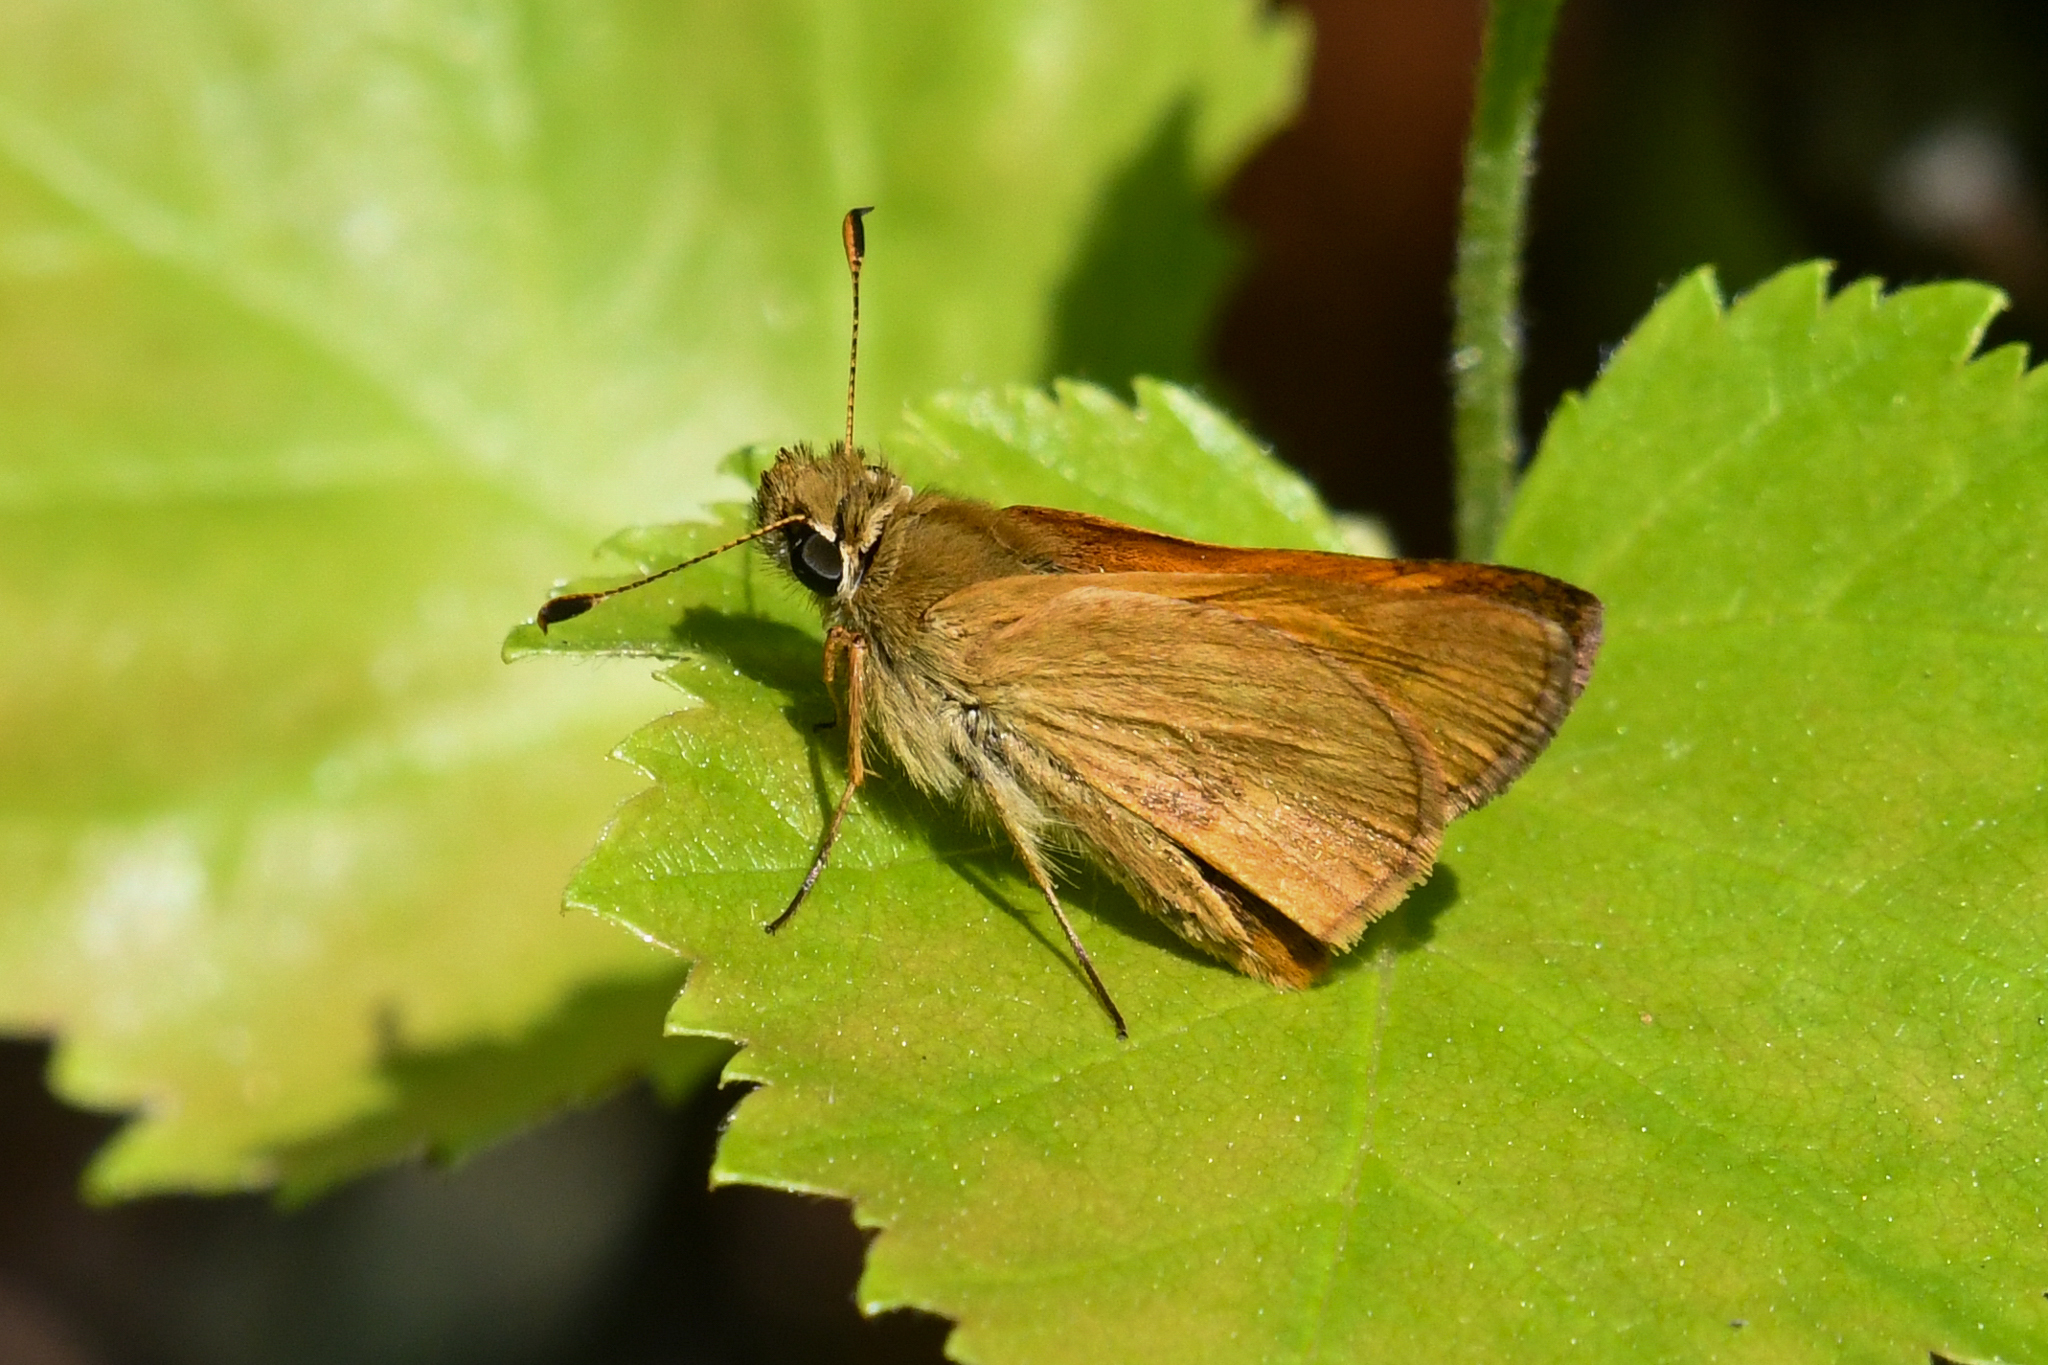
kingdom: Animalia
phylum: Arthropoda
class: Insecta
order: Lepidoptera
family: Hesperiidae
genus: Ochlodes
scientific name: Ochlodes sylvanoides
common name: Woodland skipper
